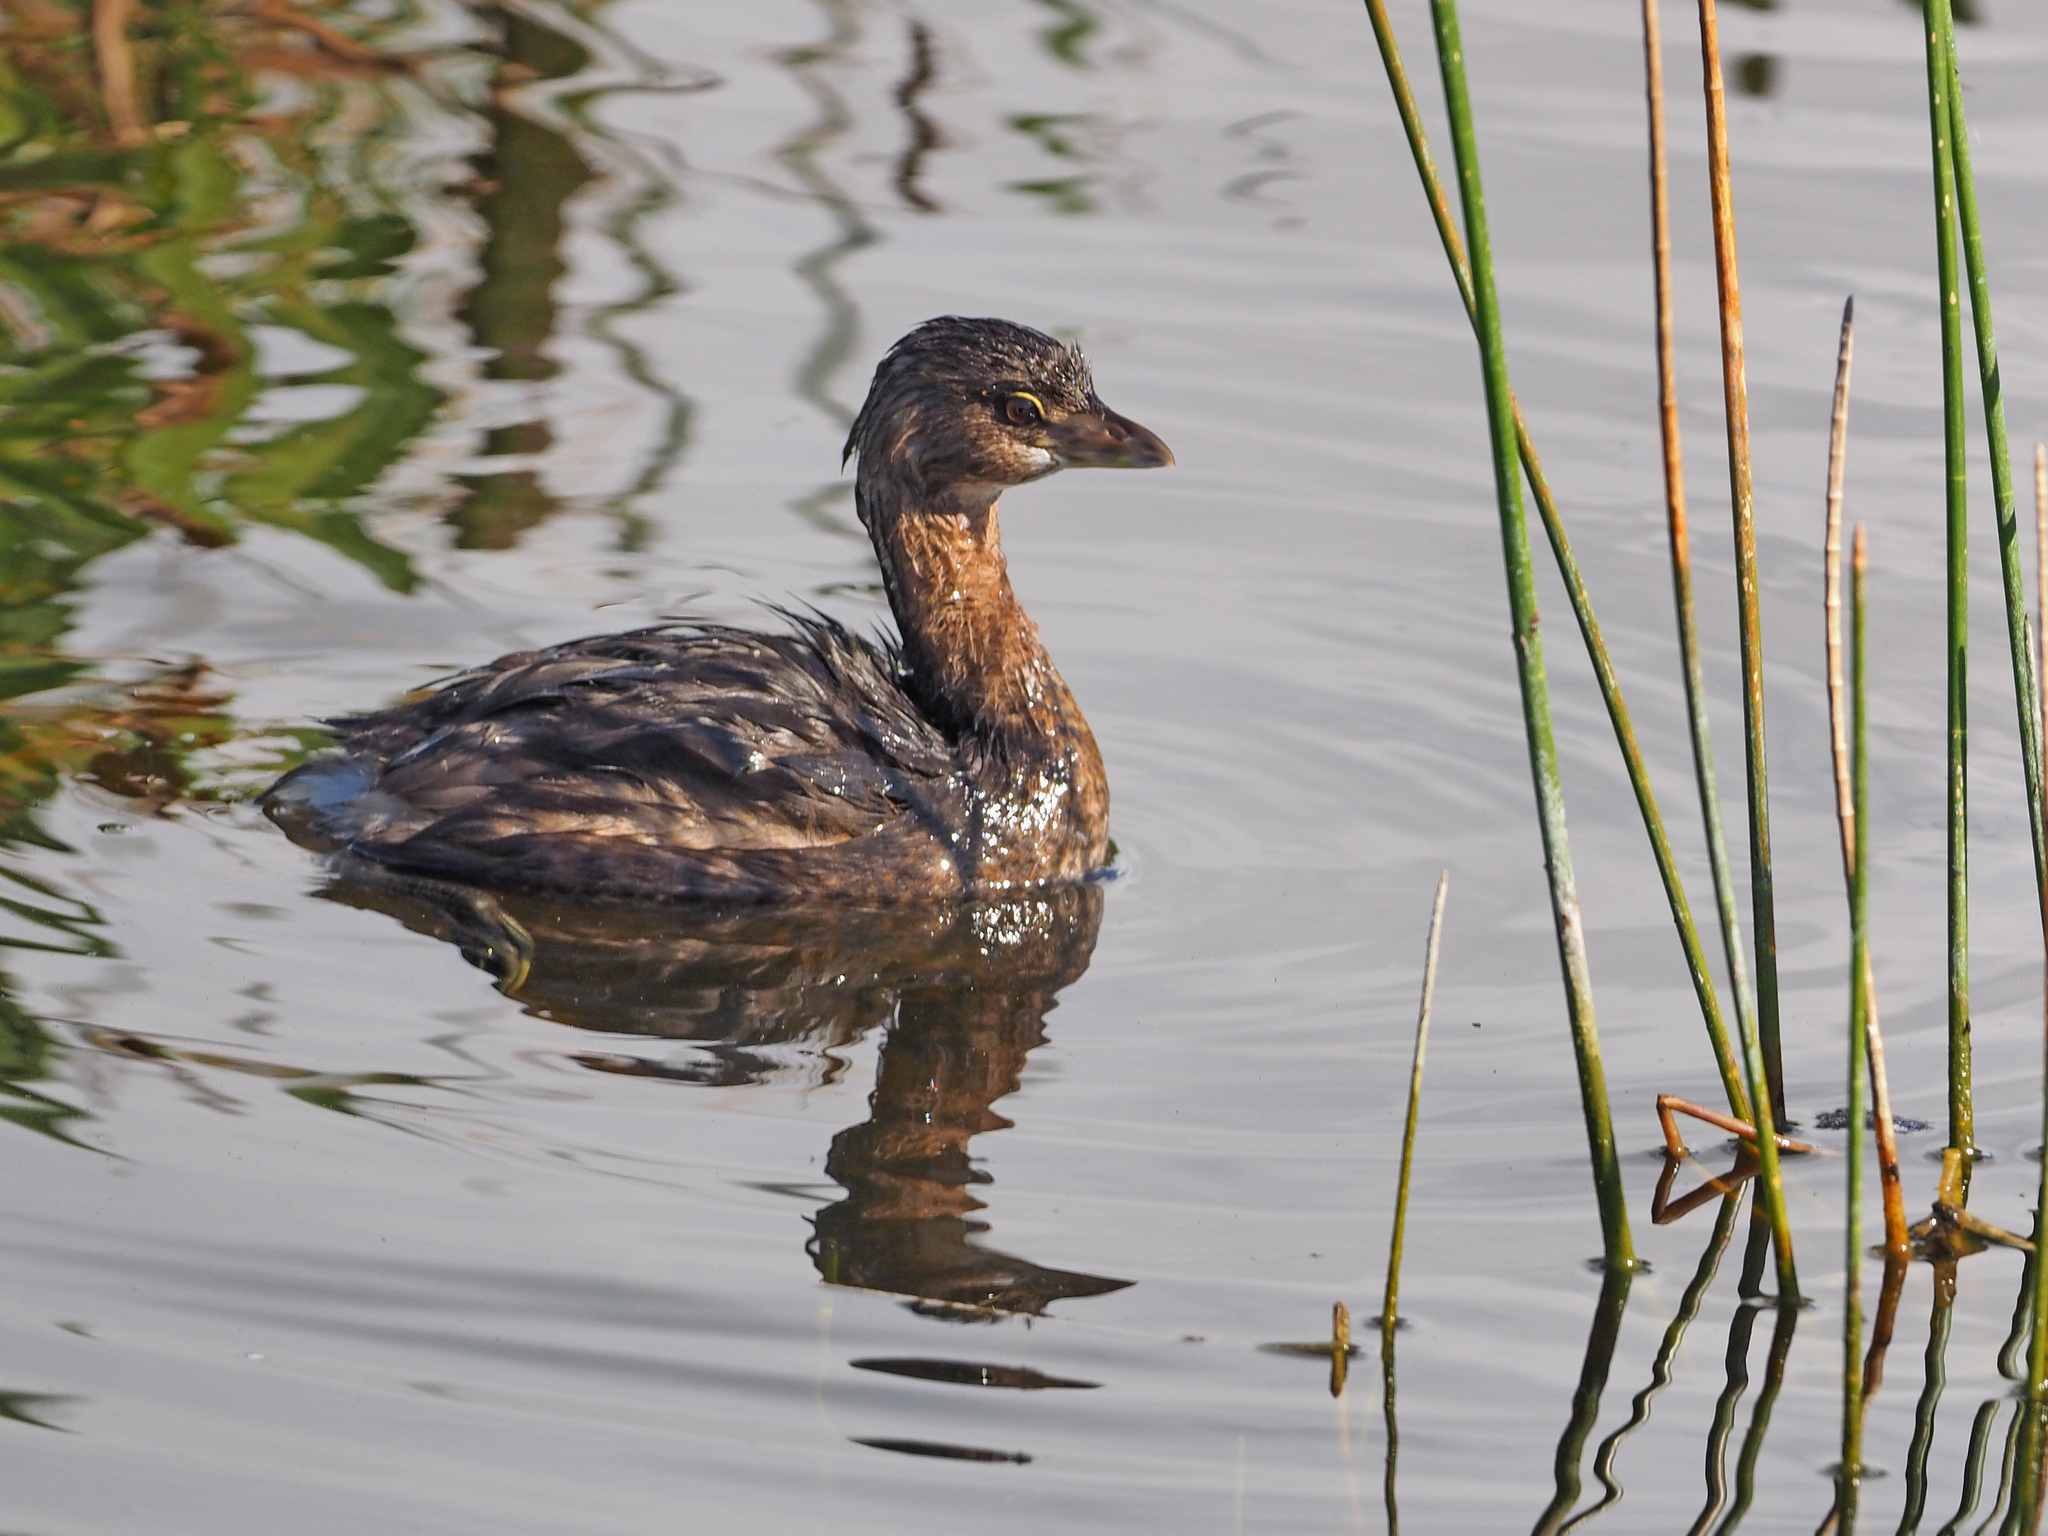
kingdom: Animalia
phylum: Chordata
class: Aves
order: Podicipediformes
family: Podicipedidae
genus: Podilymbus
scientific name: Podilymbus podiceps
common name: Pied-billed grebe
